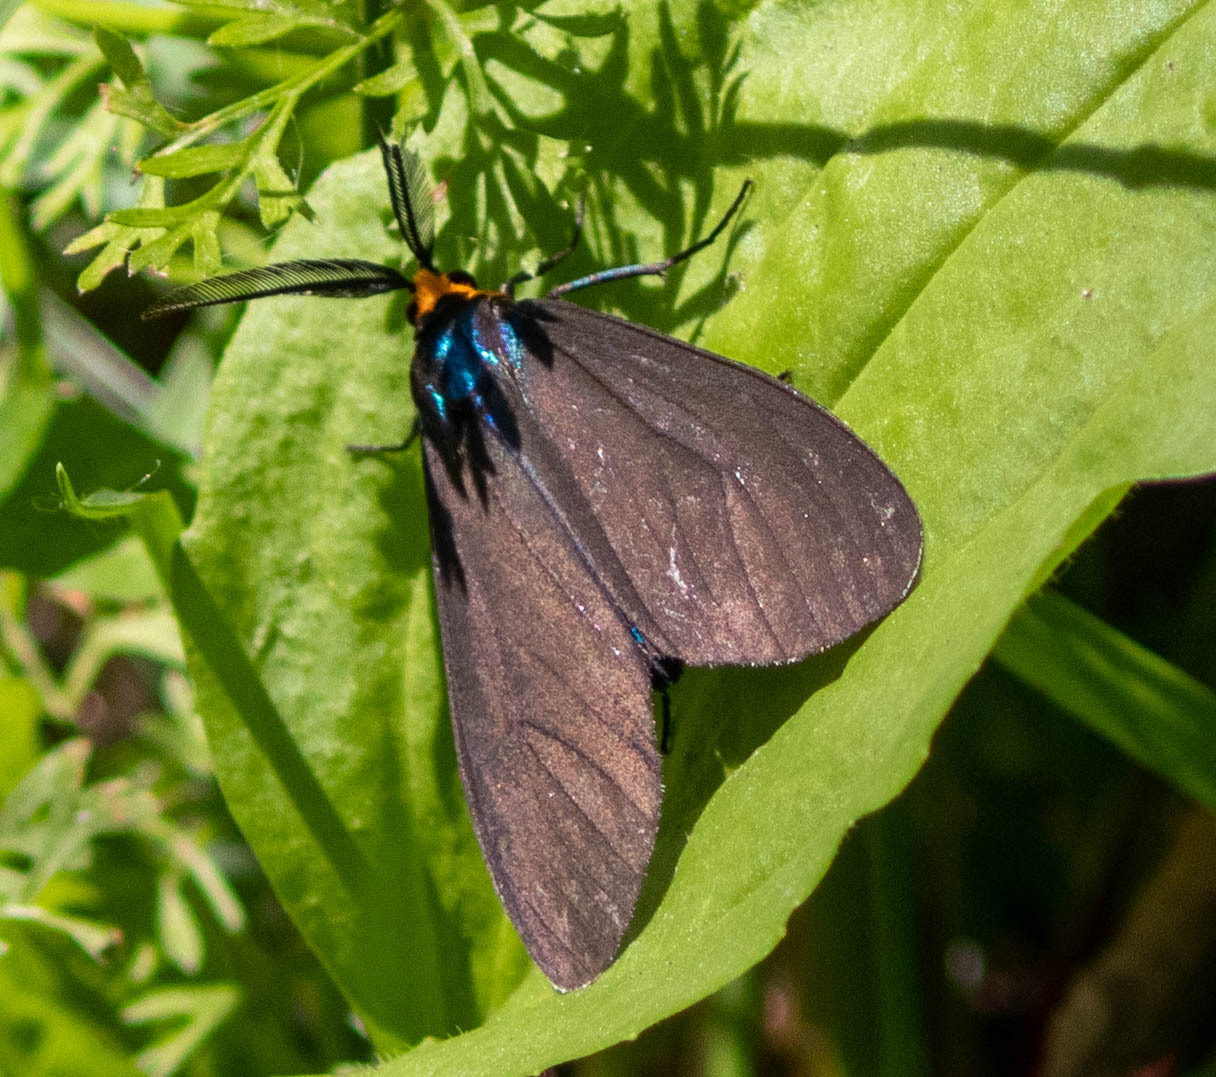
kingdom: Animalia
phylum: Arthropoda
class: Insecta
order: Lepidoptera
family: Erebidae
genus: Ctenucha
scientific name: Ctenucha virginica
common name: Virginia ctenucha moth
